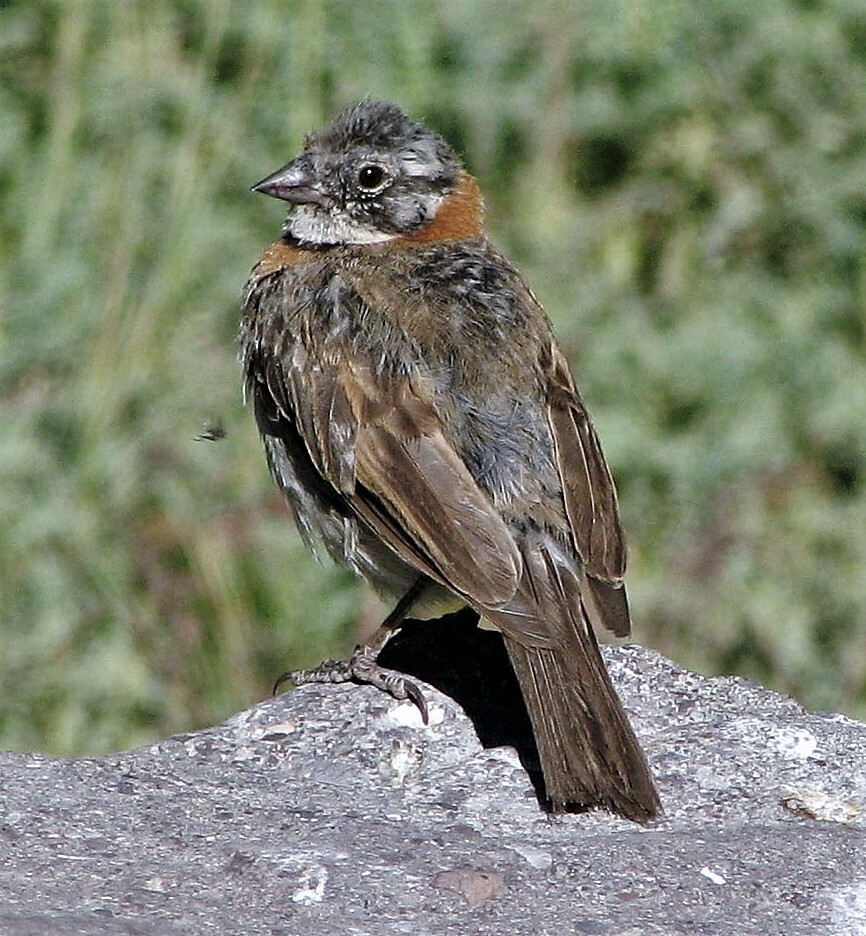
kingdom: Animalia
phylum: Chordata
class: Aves
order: Passeriformes
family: Passerellidae
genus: Zonotrichia
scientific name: Zonotrichia capensis
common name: Rufous-collared sparrow
